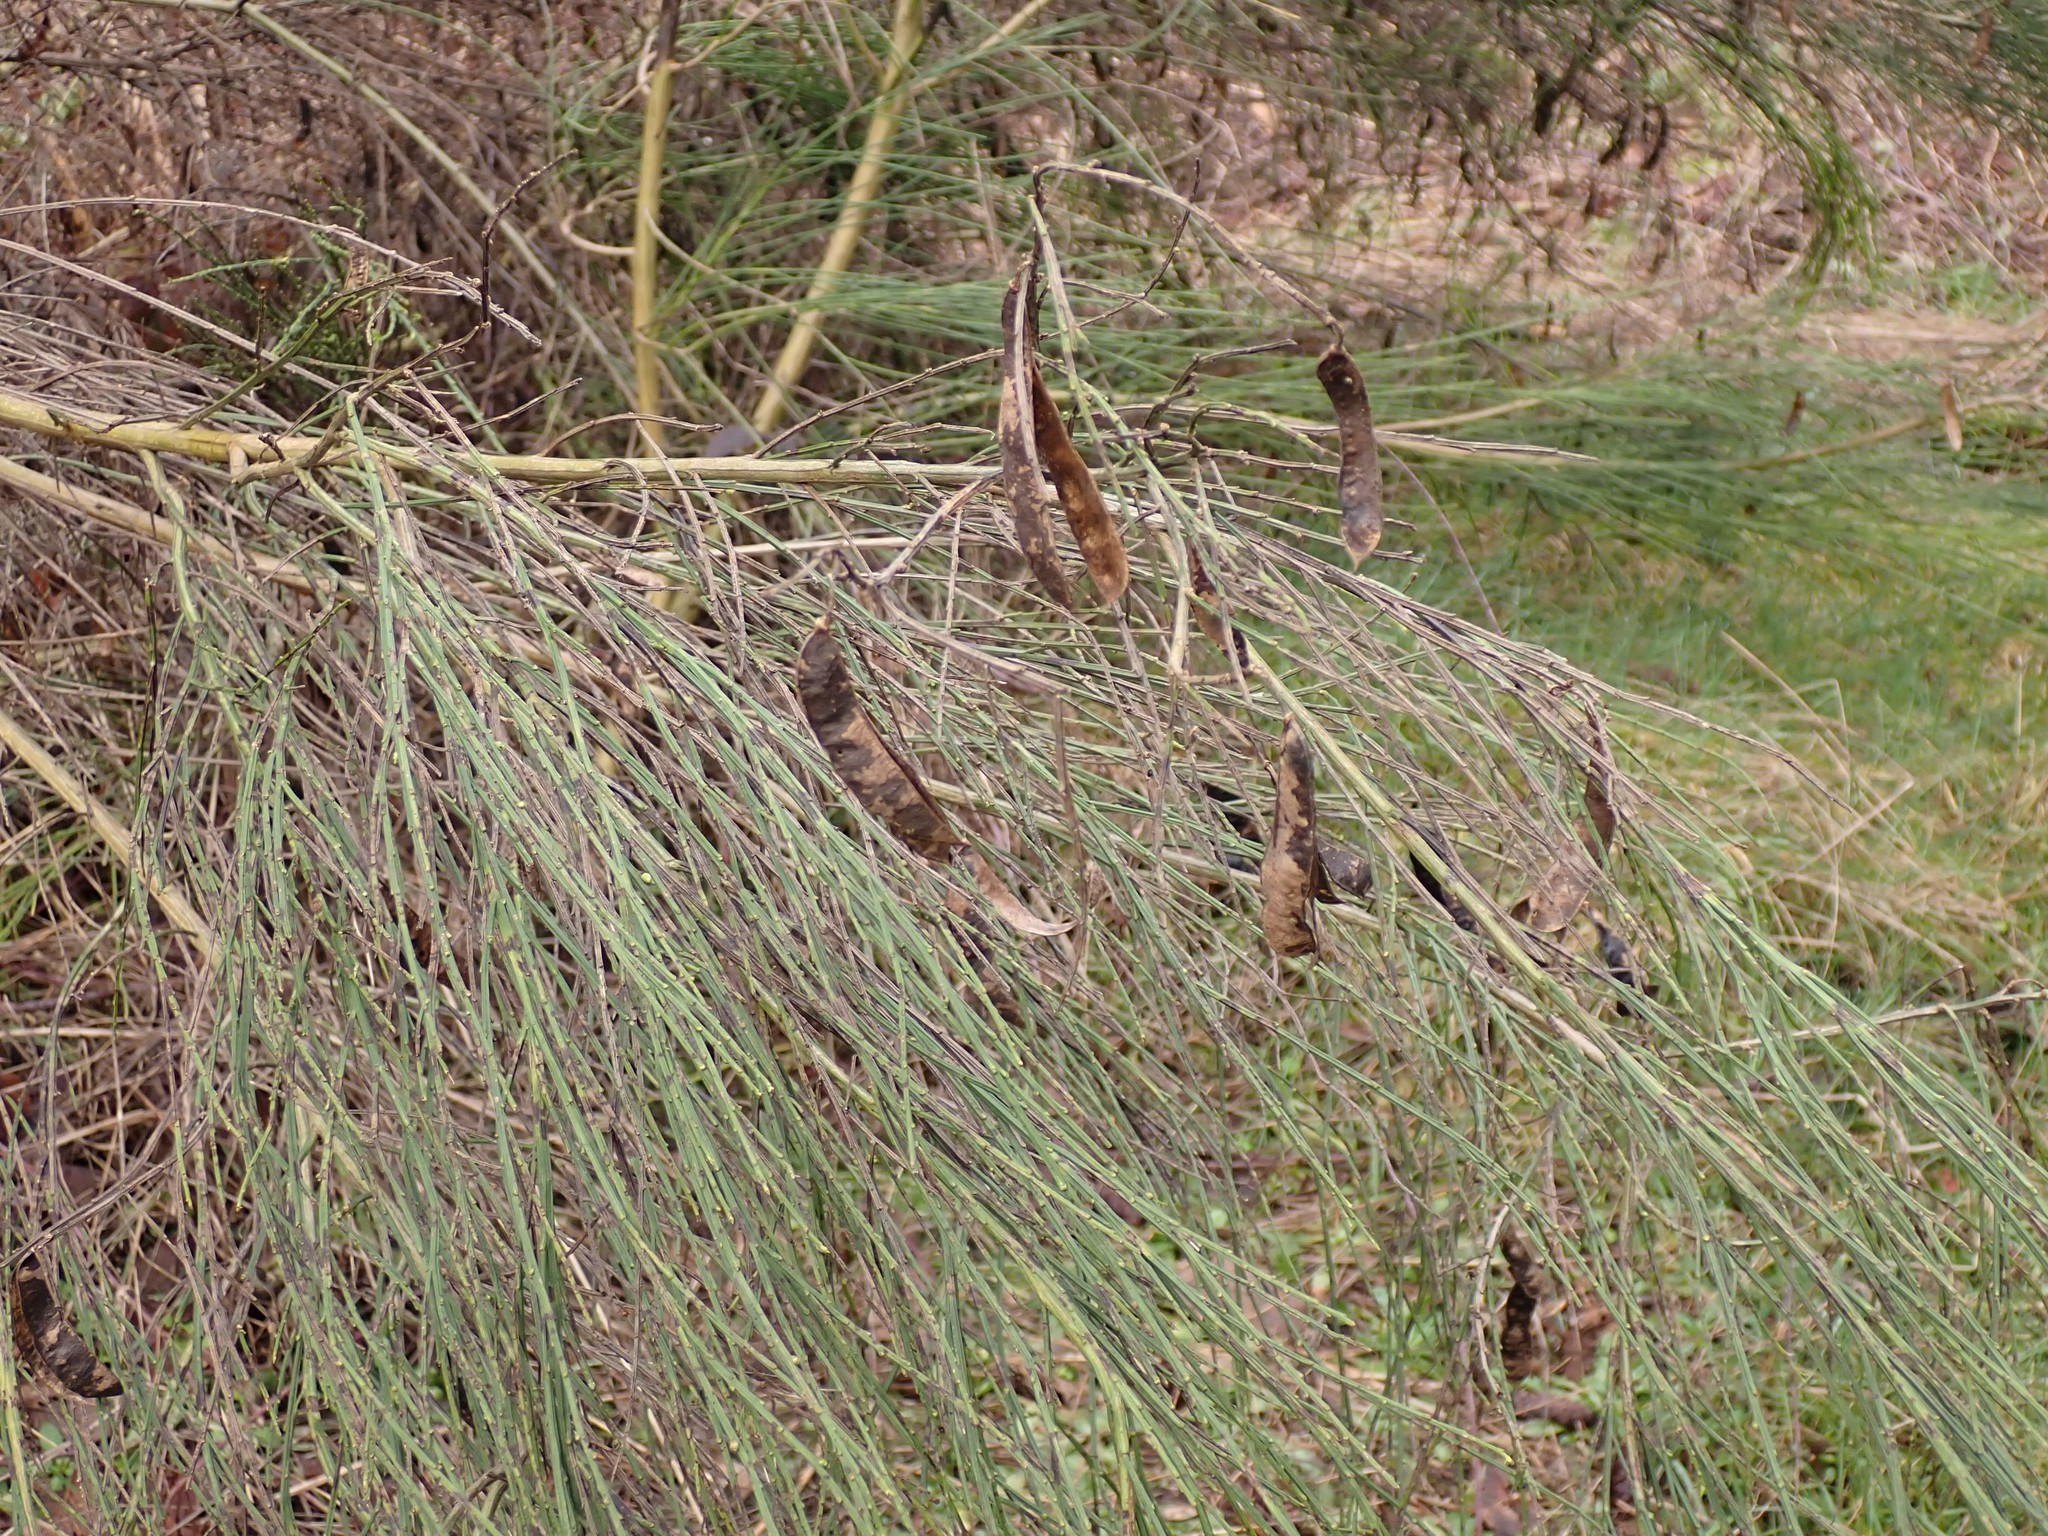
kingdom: Plantae
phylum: Tracheophyta
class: Magnoliopsida
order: Fabales
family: Fabaceae
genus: Cytisus
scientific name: Cytisus scoparius
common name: Scotch broom
